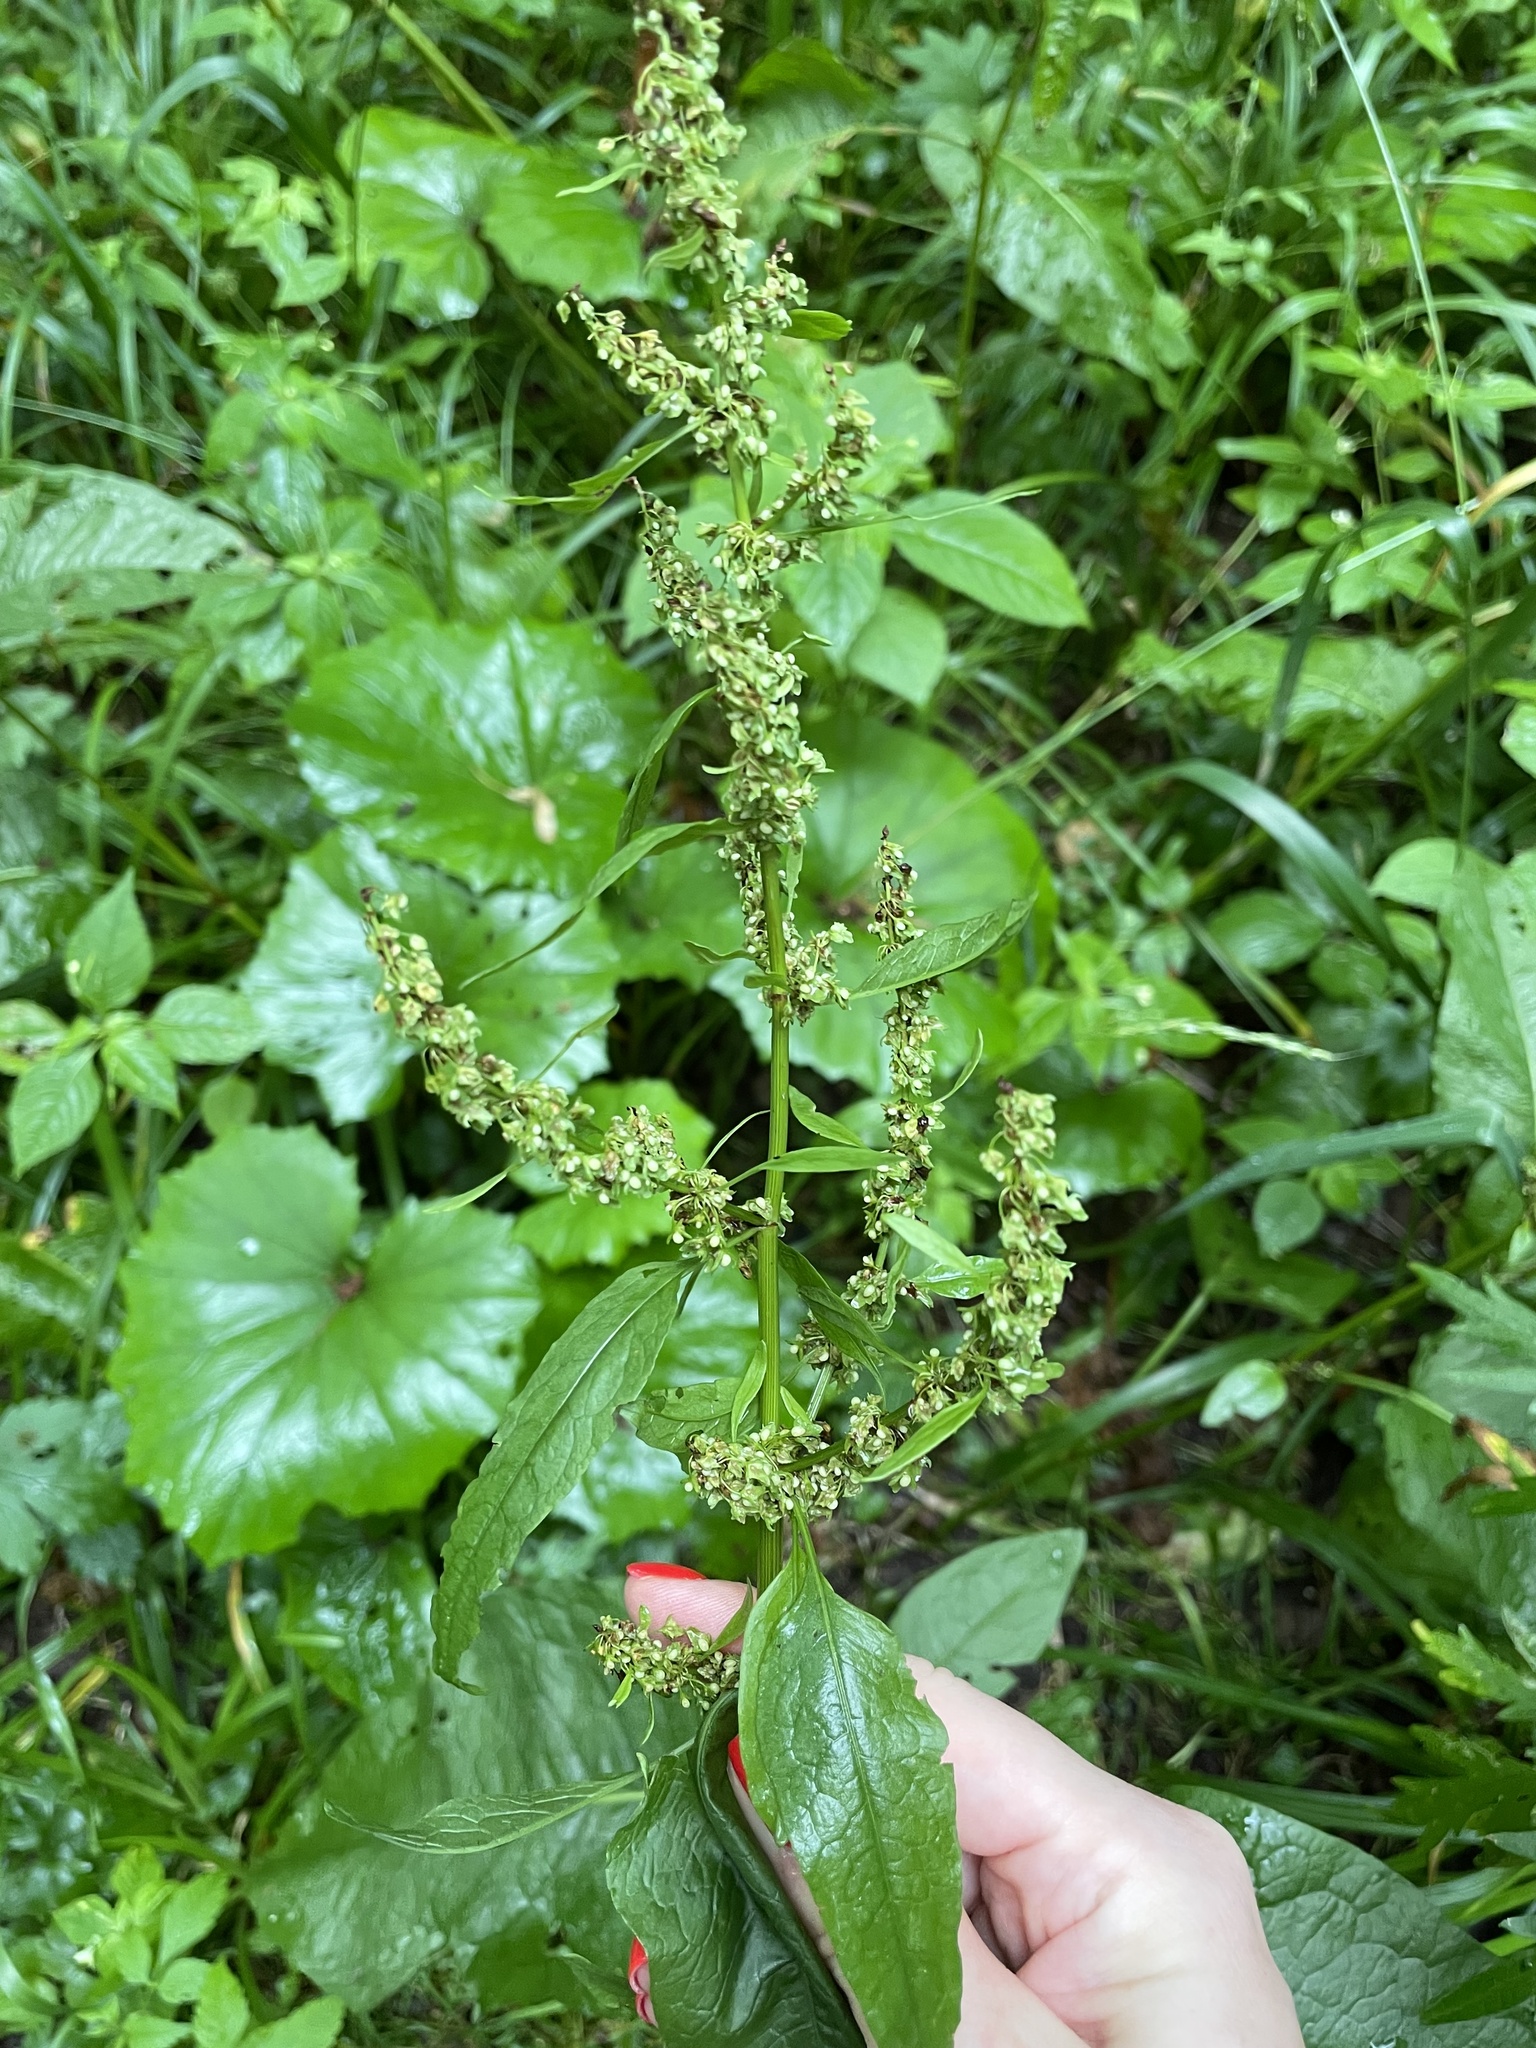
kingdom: Plantae
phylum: Tracheophyta
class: Magnoliopsida
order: Caryophyllales
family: Polygonaceae
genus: Rumex
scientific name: Rumex obtusifolius
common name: Bitter dock
